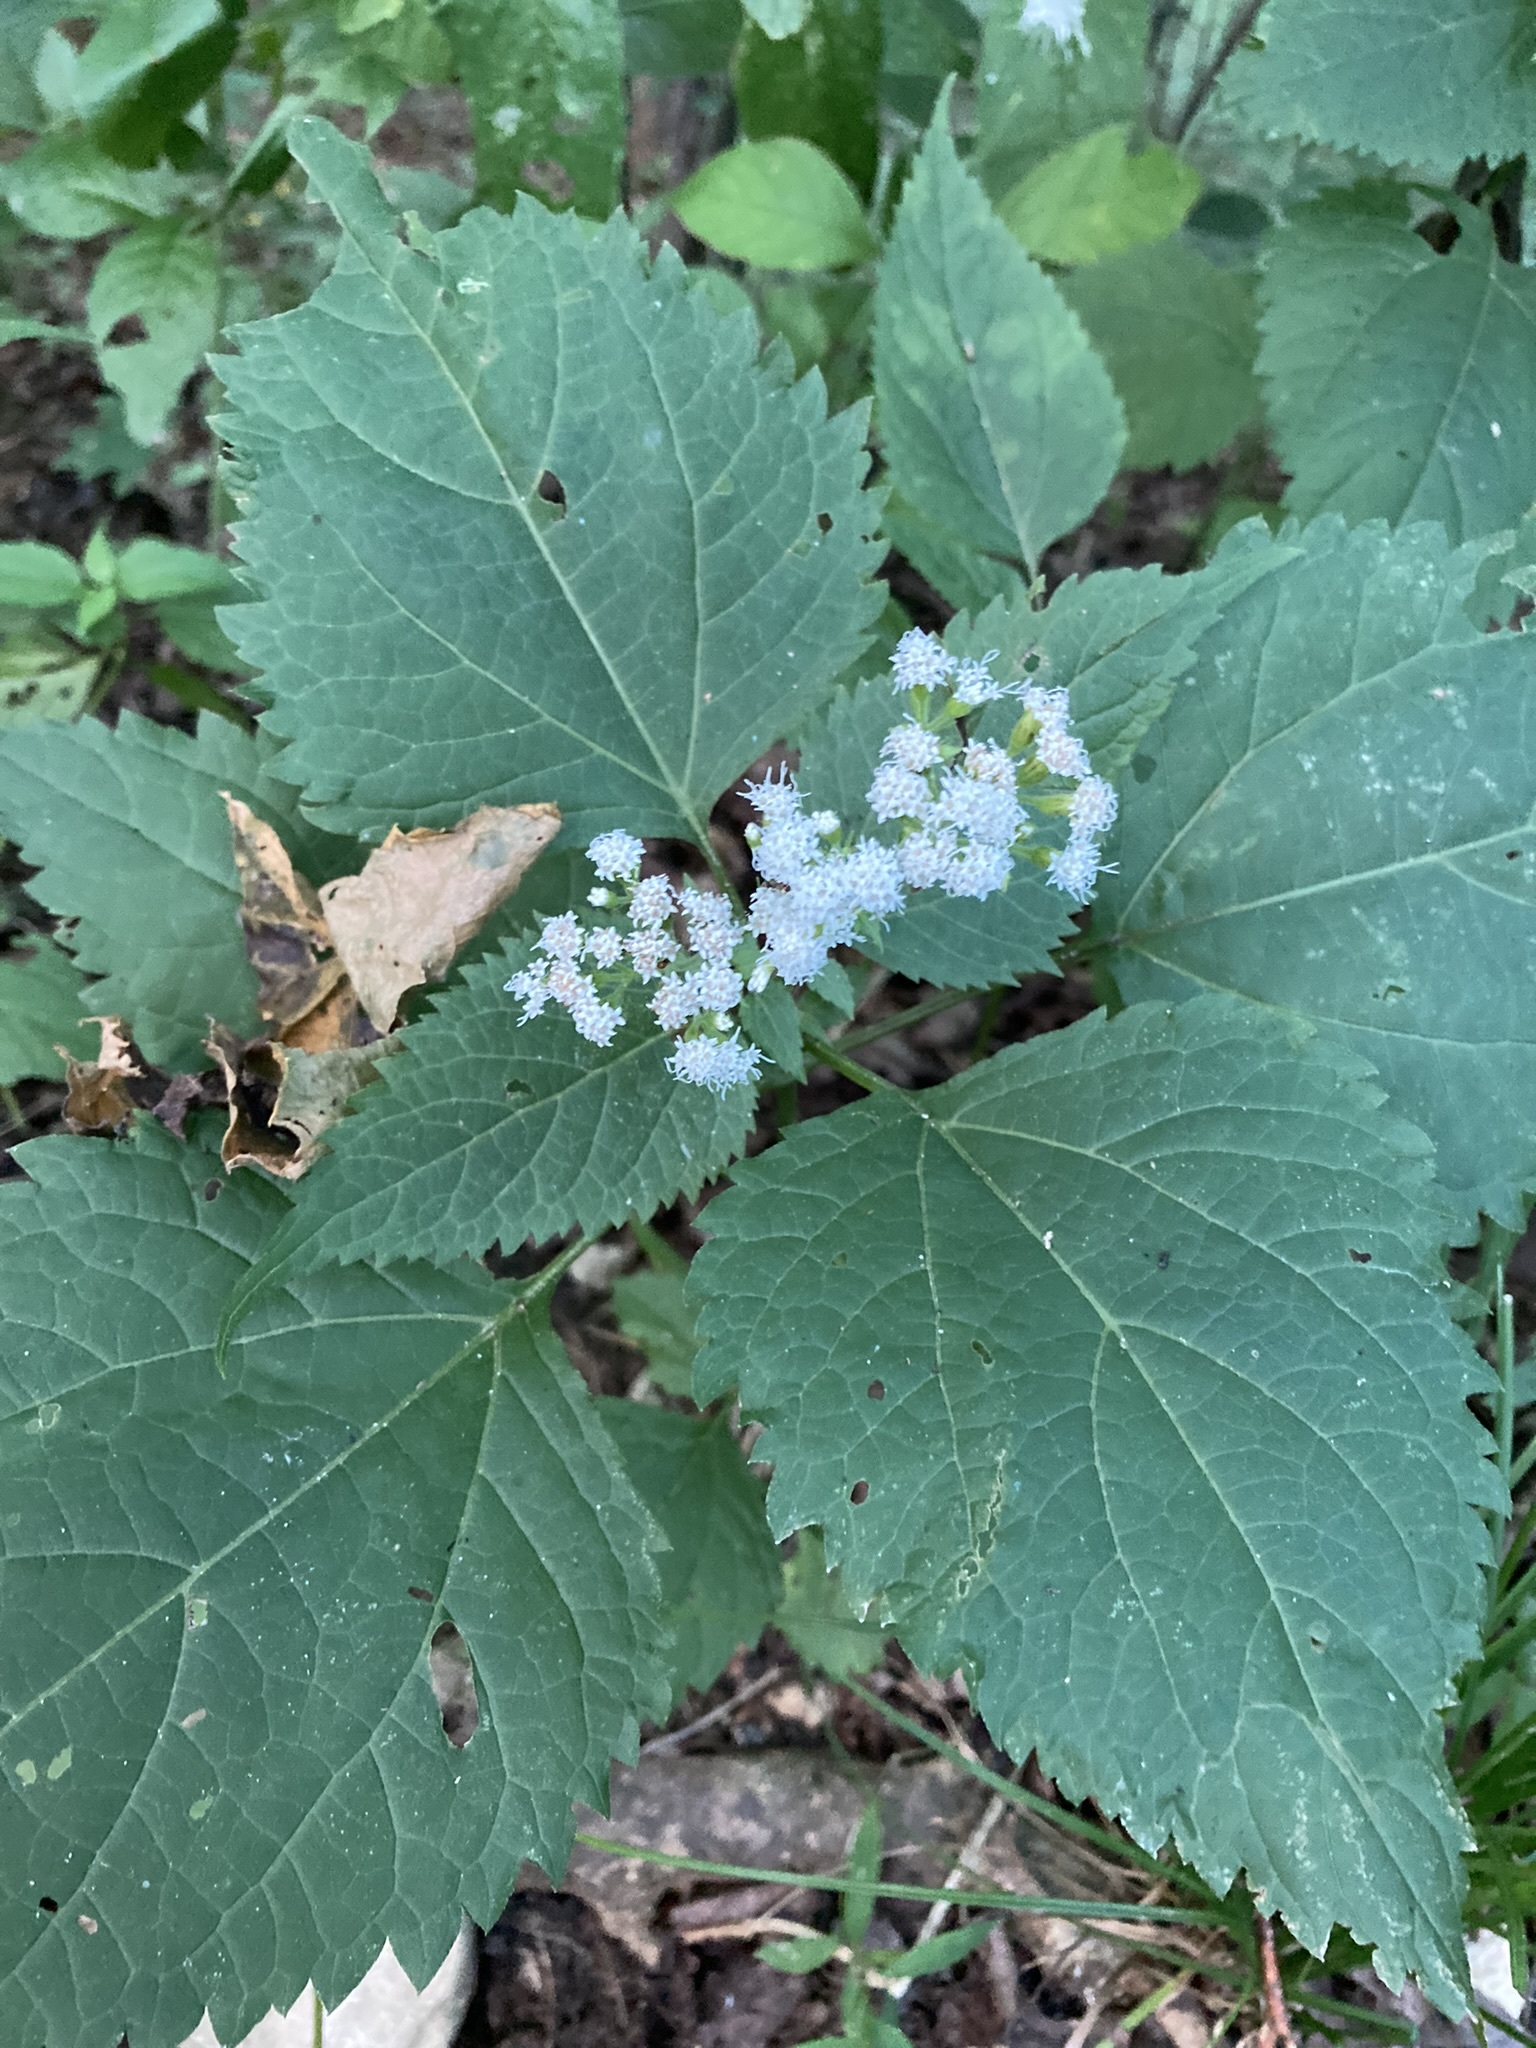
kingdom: Plantae
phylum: Tracheophyta
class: Magnoliopsida
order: Asterales
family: Asteraceae
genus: Ageratina
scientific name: Ageratina altissima
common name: White snakeroot
